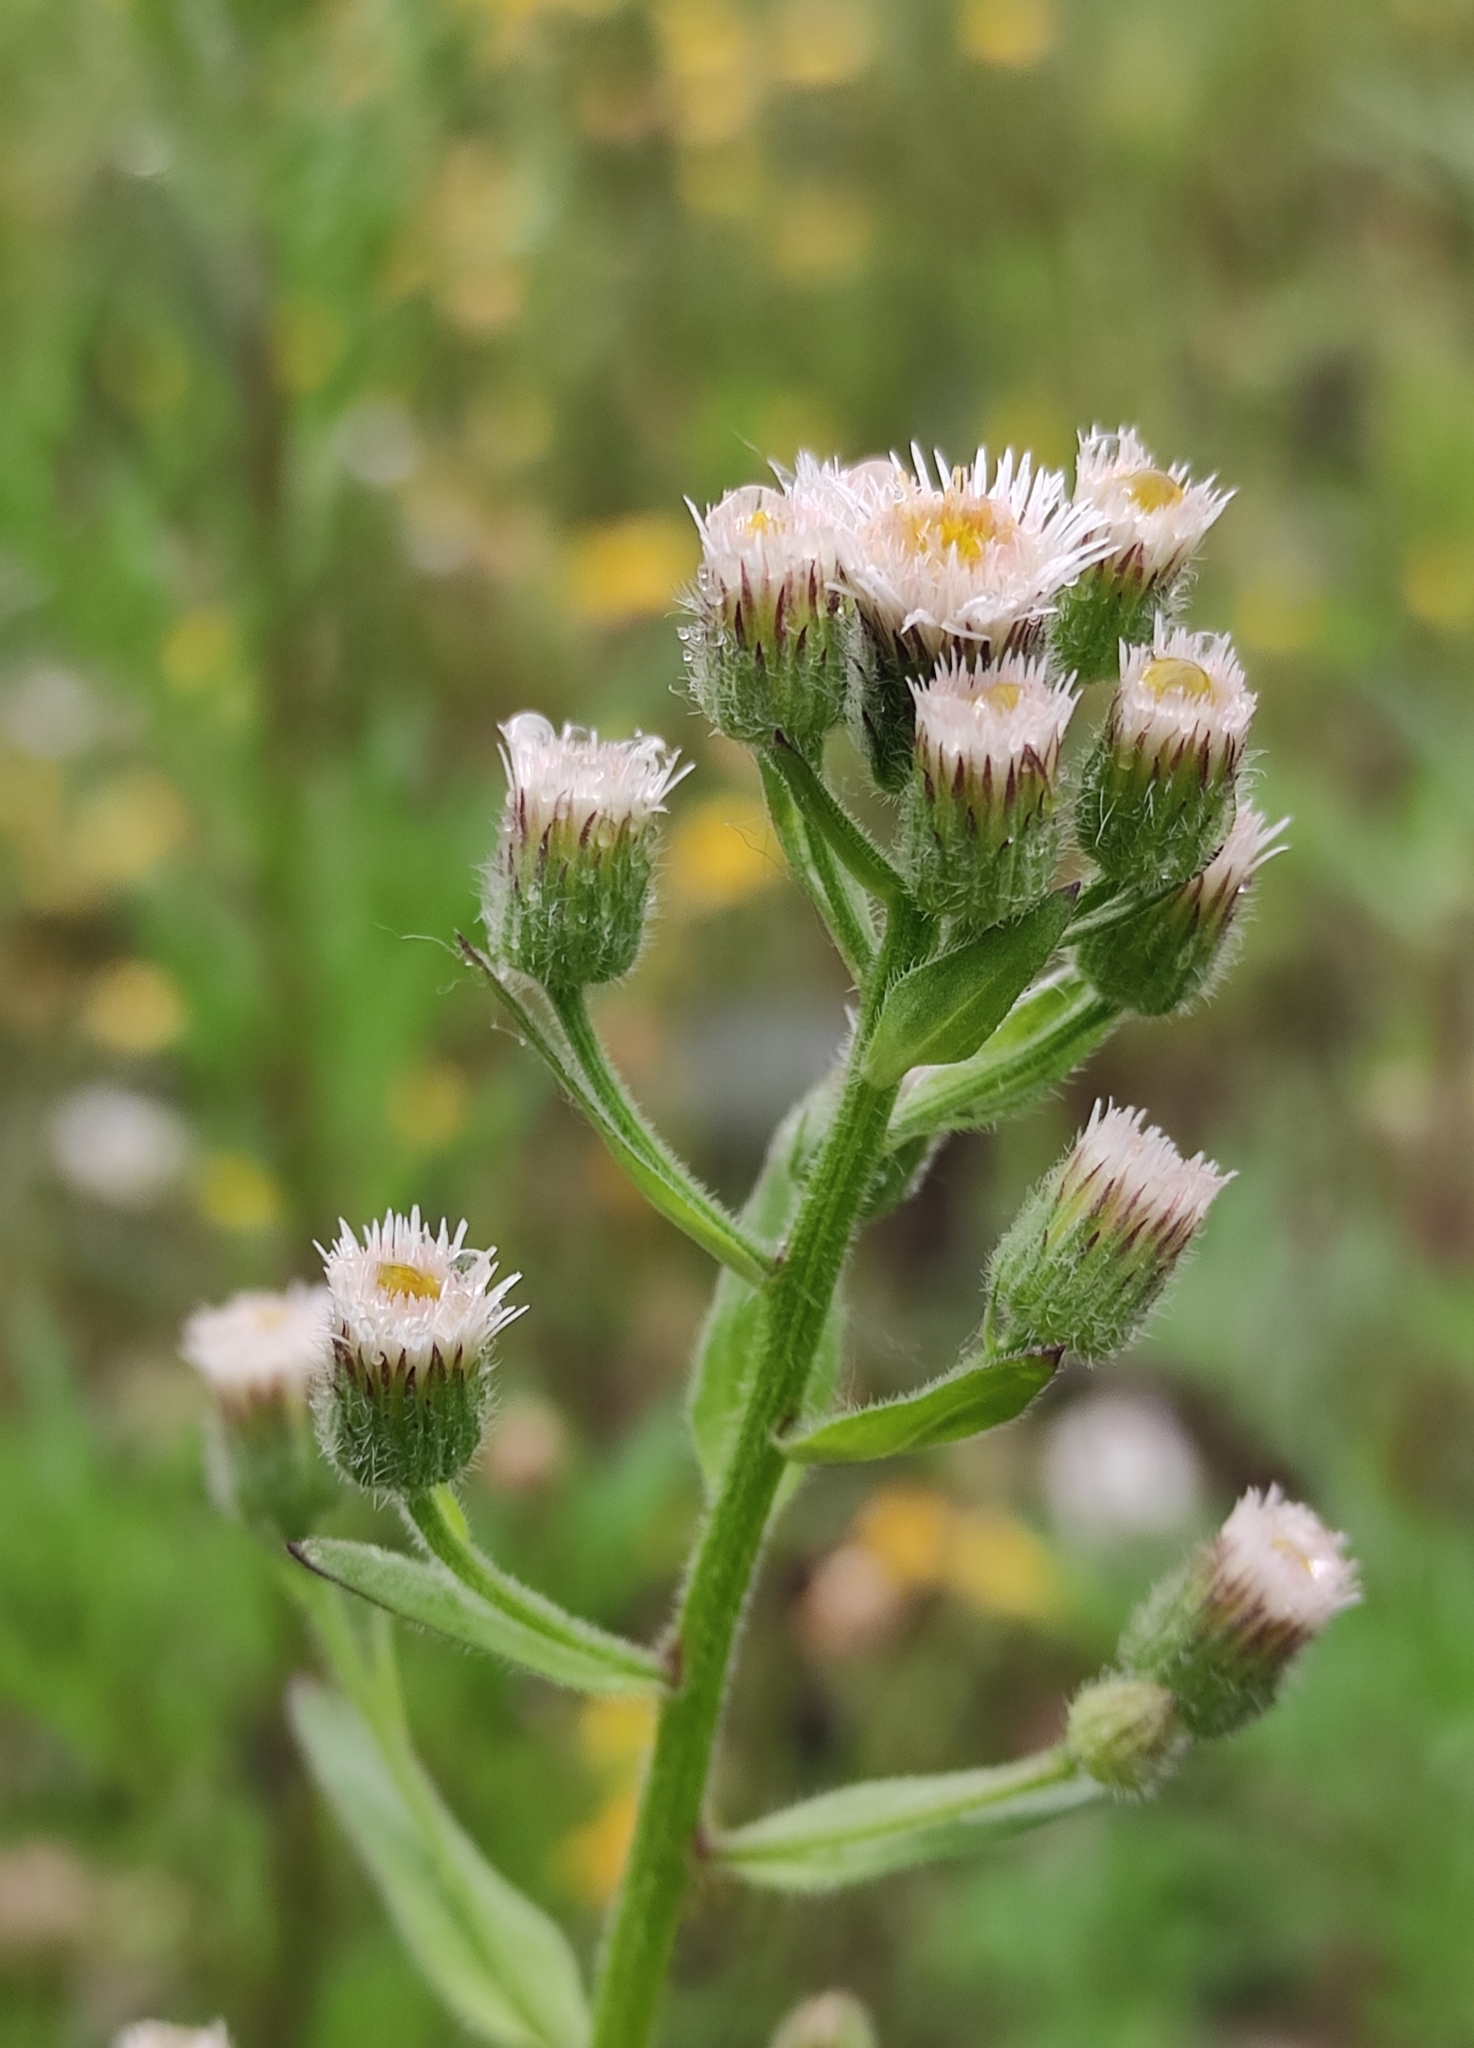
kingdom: Plantae
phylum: Tracheophyta
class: Magnoliopsida
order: Asterales
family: Asteraceae
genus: Erigeron
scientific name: Erigeron acris
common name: Blue fleabane
